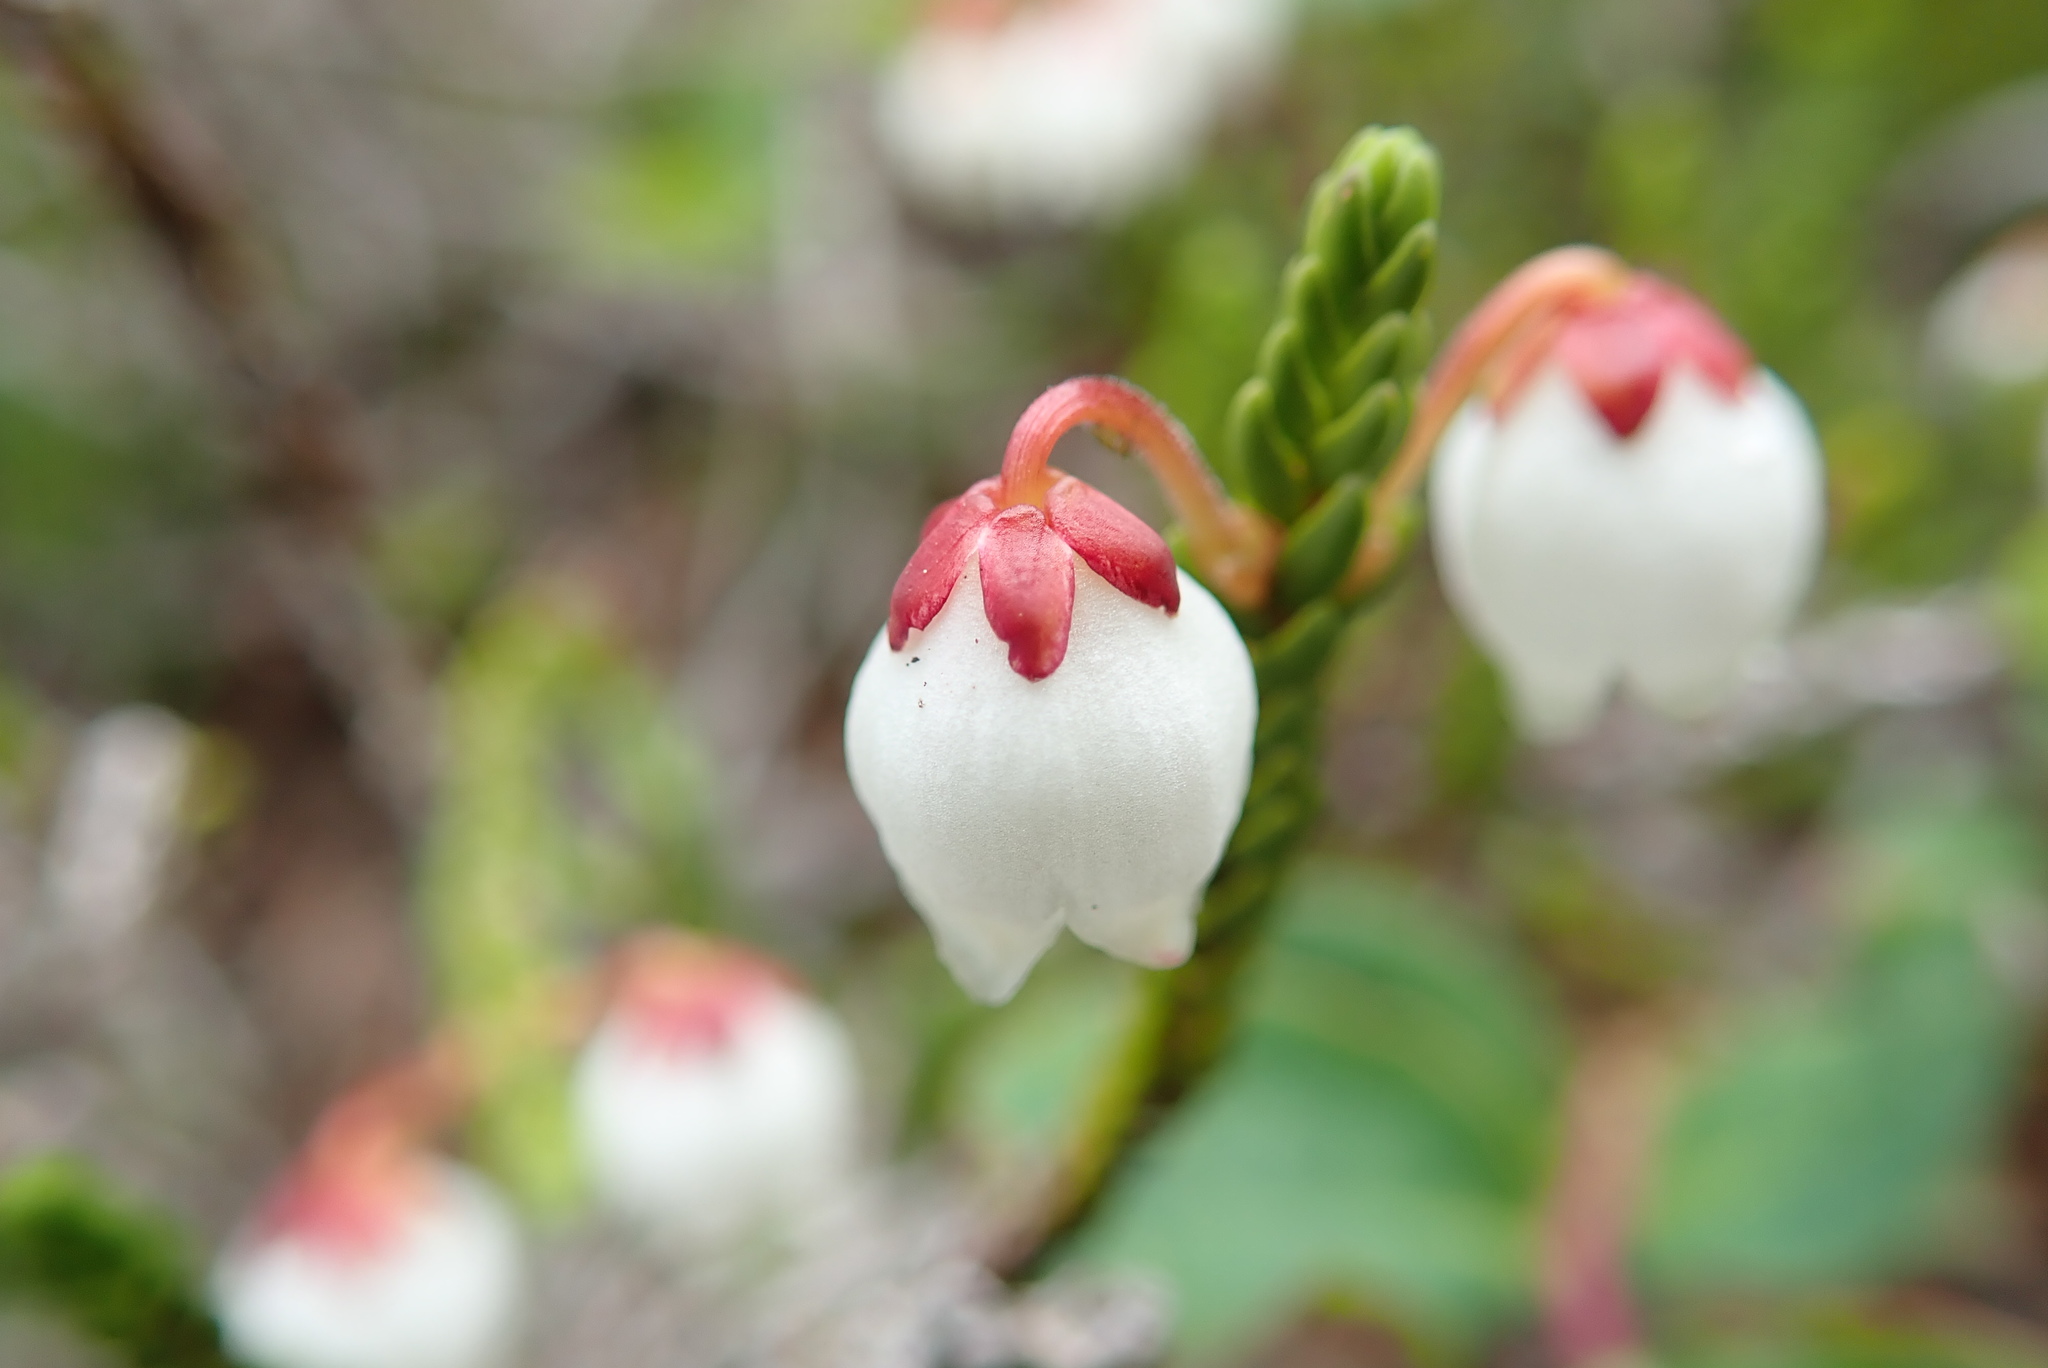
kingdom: Plantae
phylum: Tracheophyta
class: Magnoliopsida
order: Ericales
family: Ericaceae
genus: Cassiope
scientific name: Cassiope mertensiana
